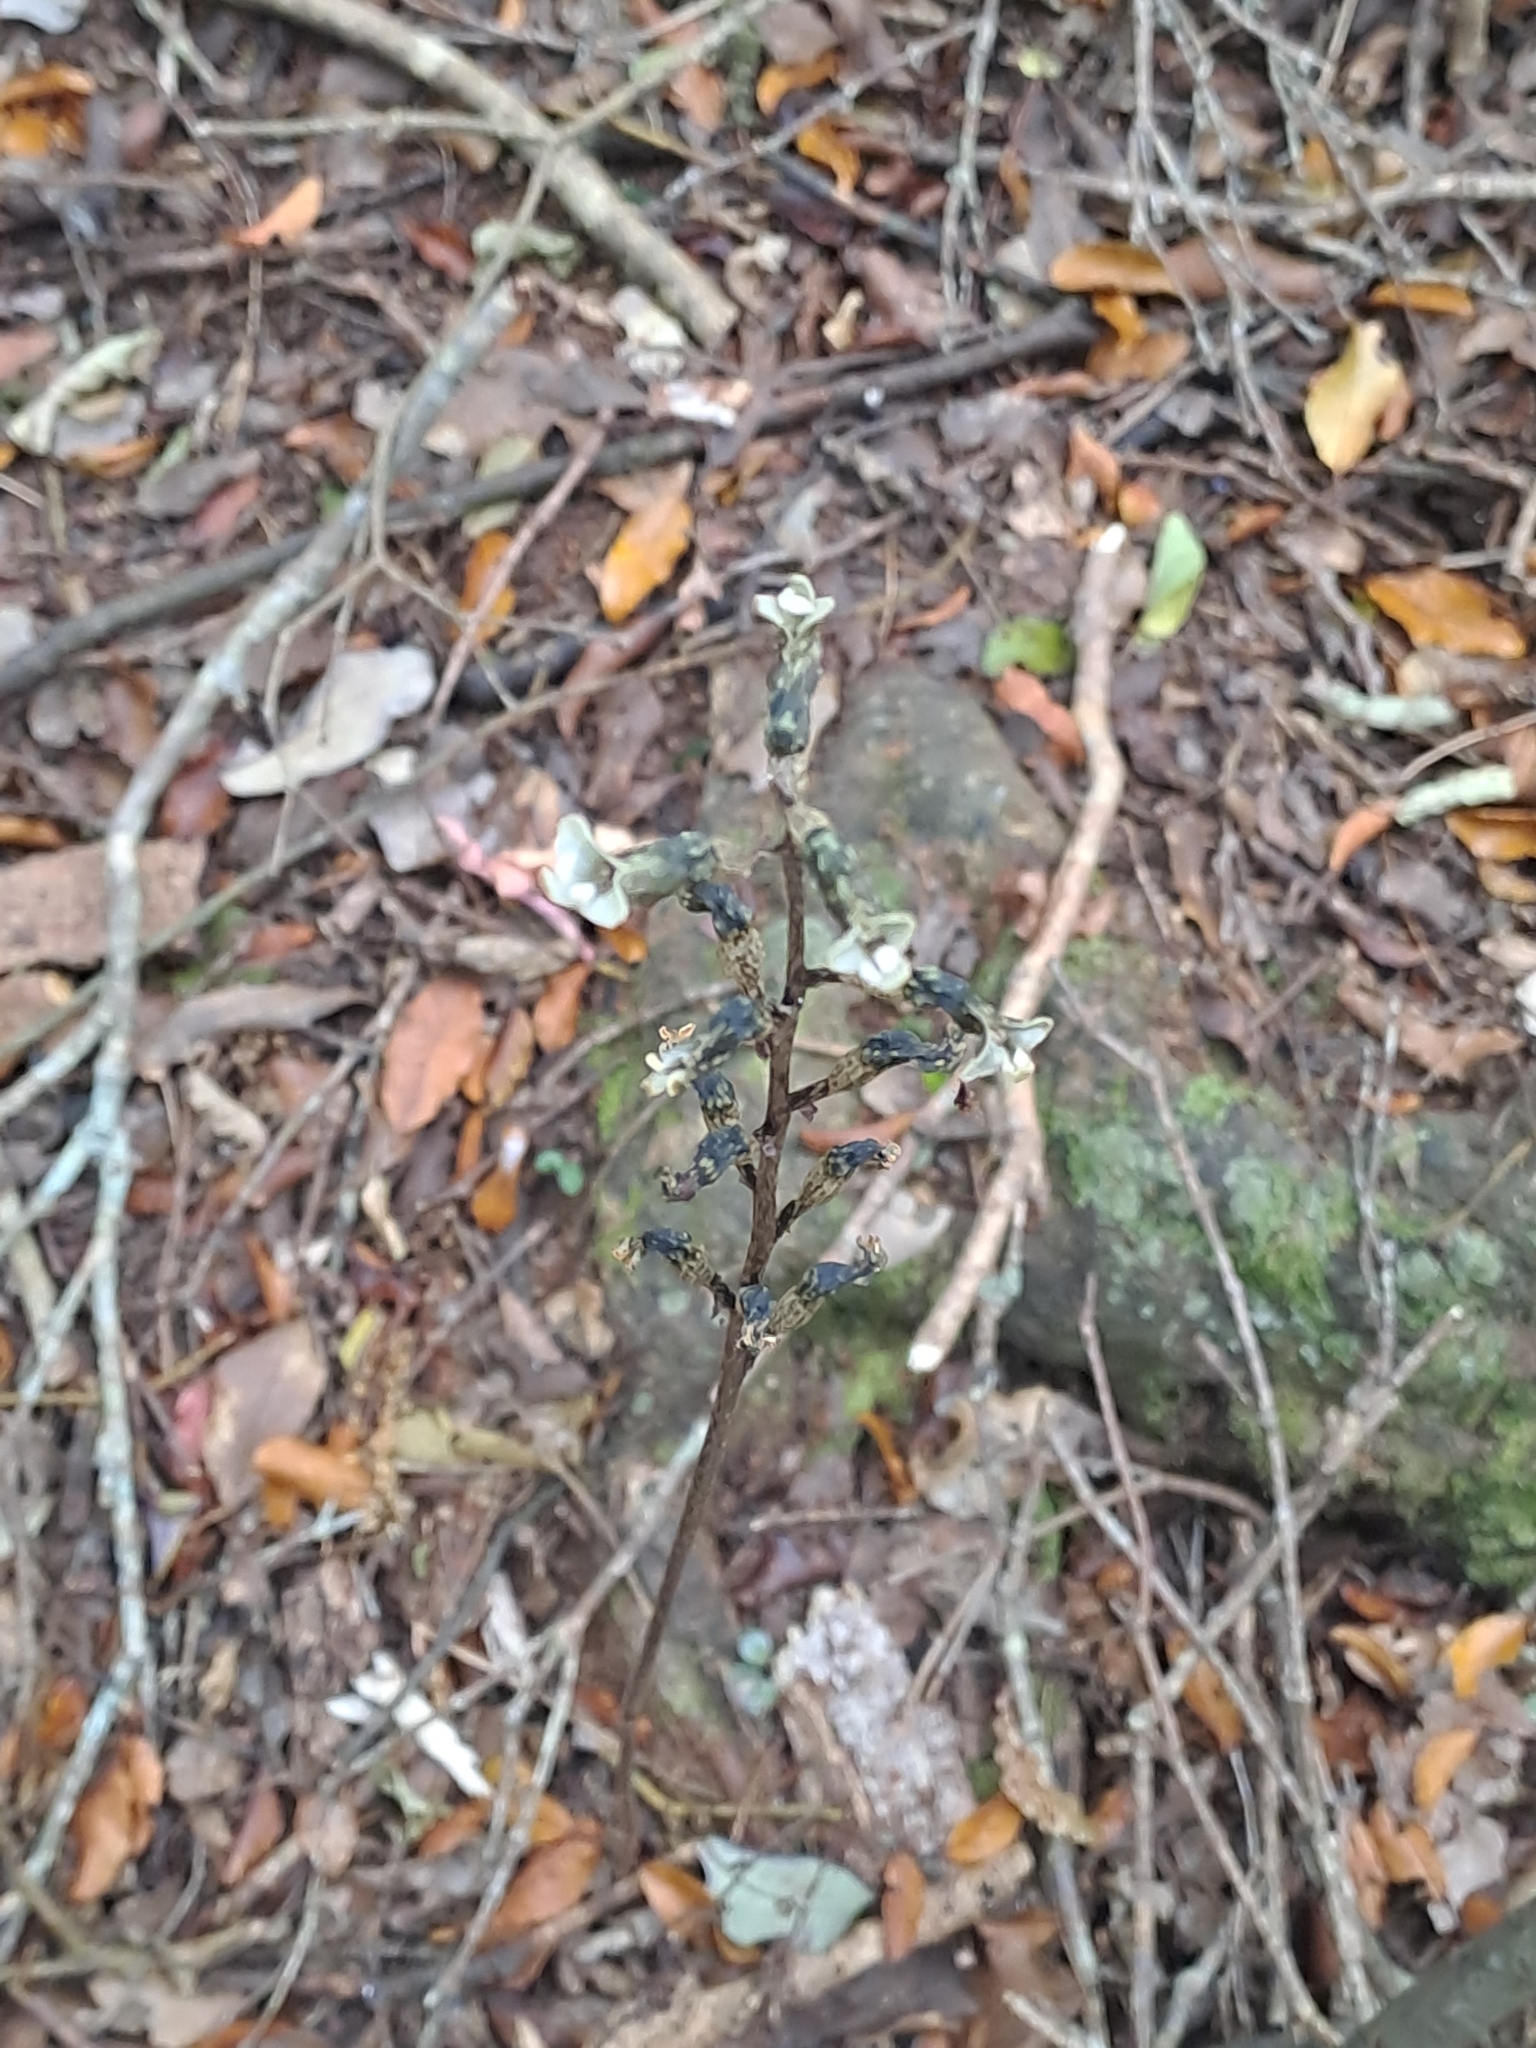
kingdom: Plantae
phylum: Tracheophyta
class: Liliopsida
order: Asparagales
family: Orchidaceae
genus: Gastrodia
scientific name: Gastrodia cunninghamii
